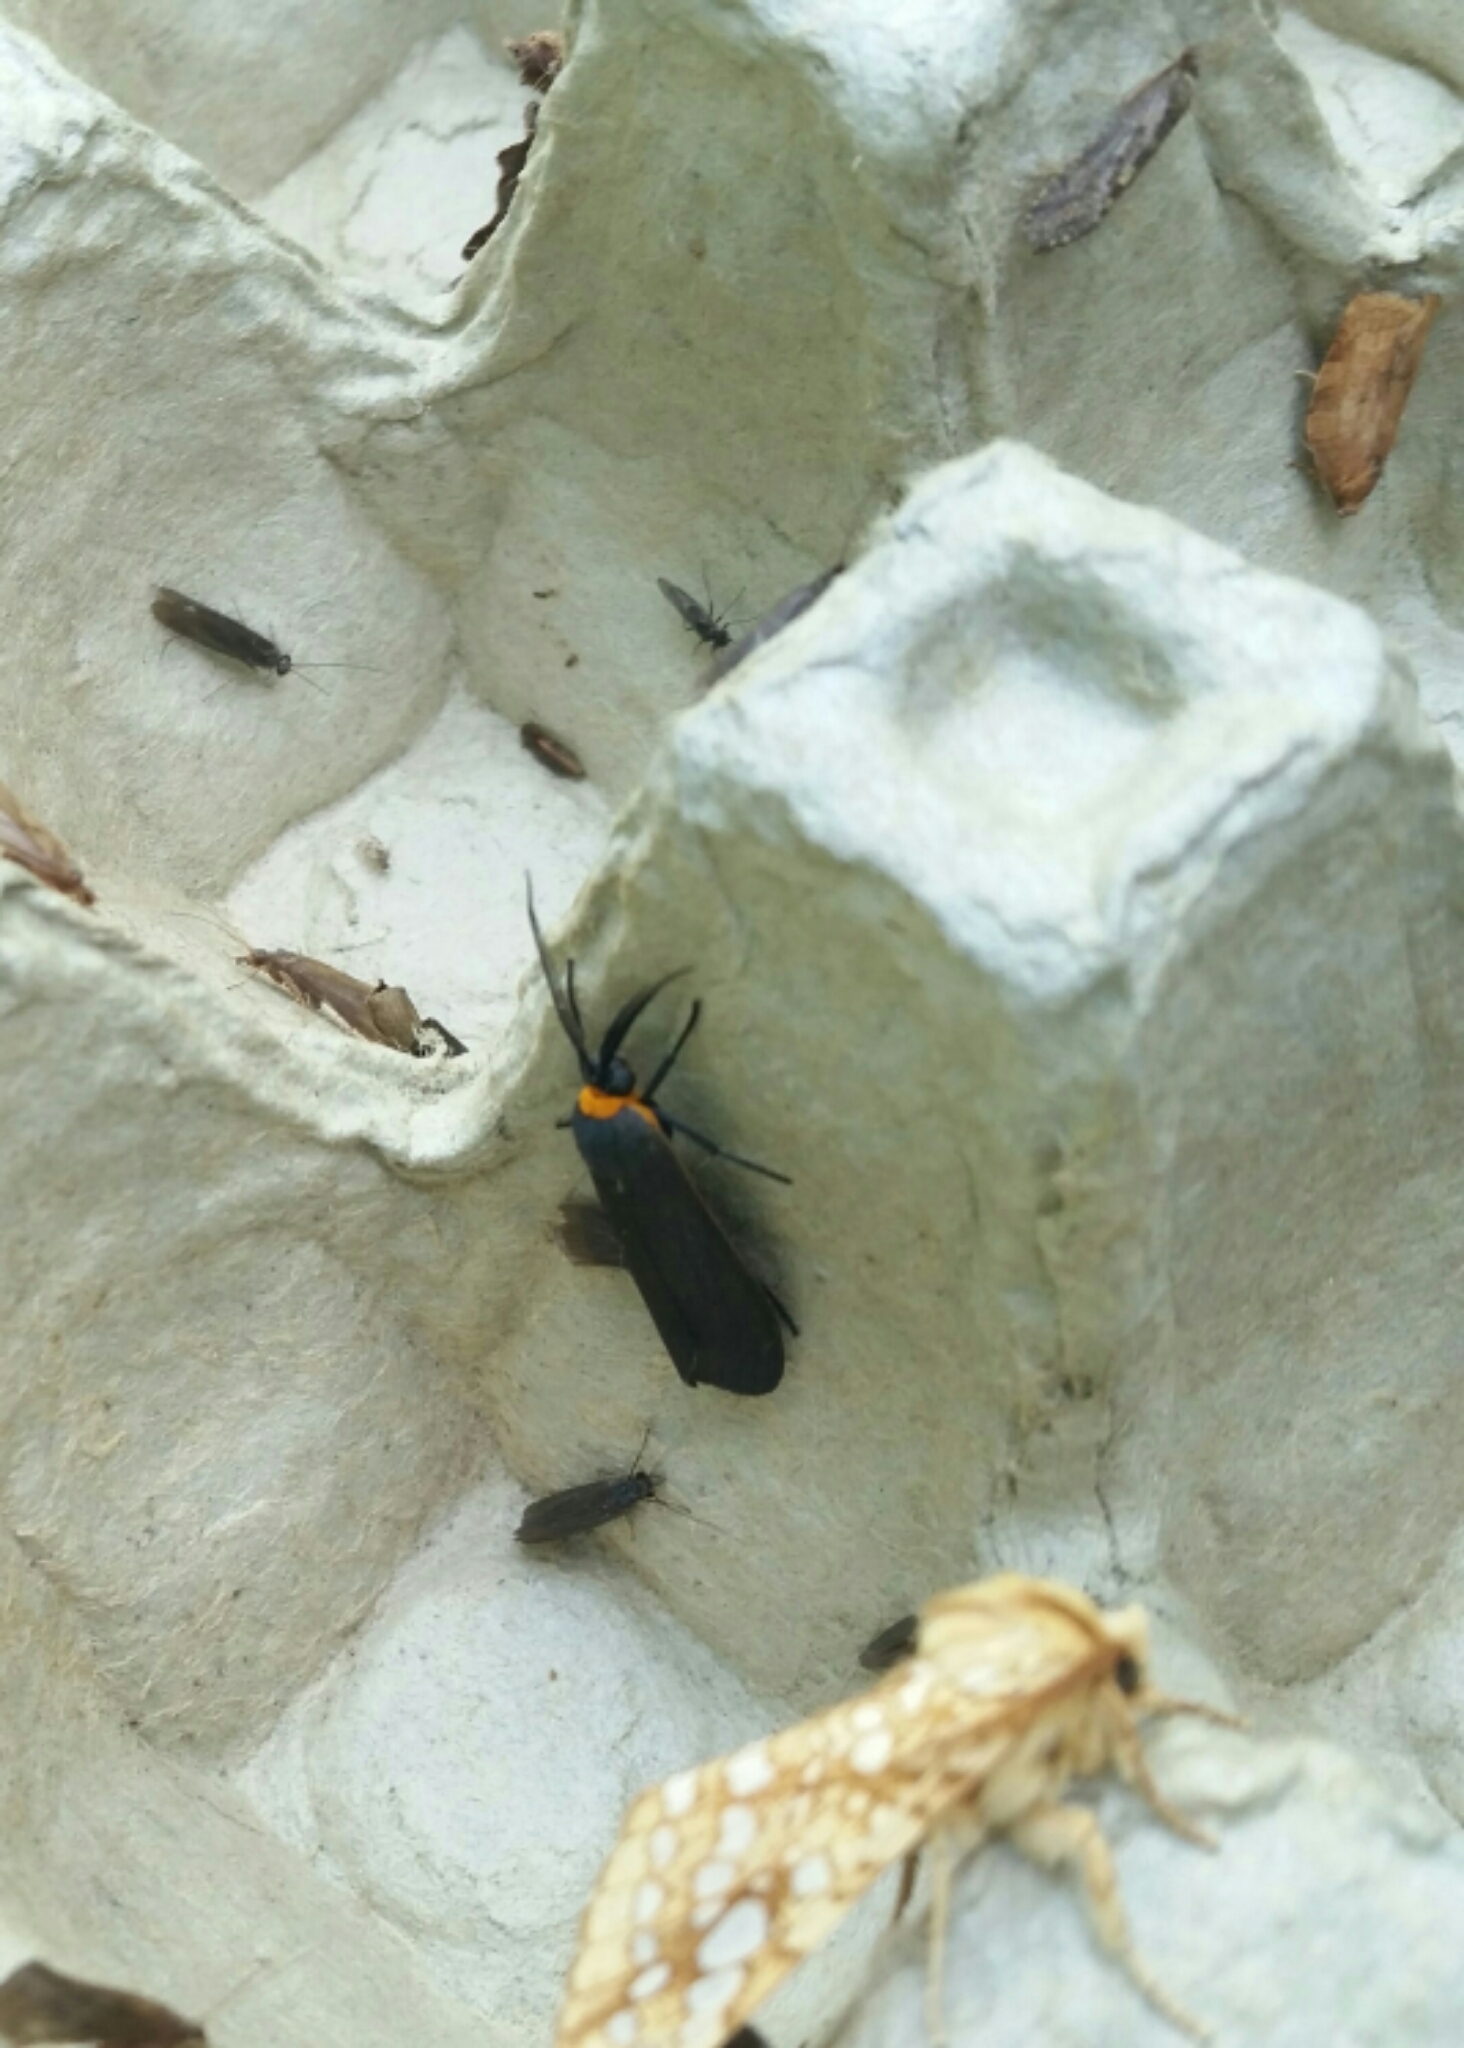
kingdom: Animalia
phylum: Arthropoda
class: Insecta
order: Lepidoptera
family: Erebidae
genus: Cisseps
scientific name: Cisseps fulvicollis
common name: Yellow-collared scape moth
